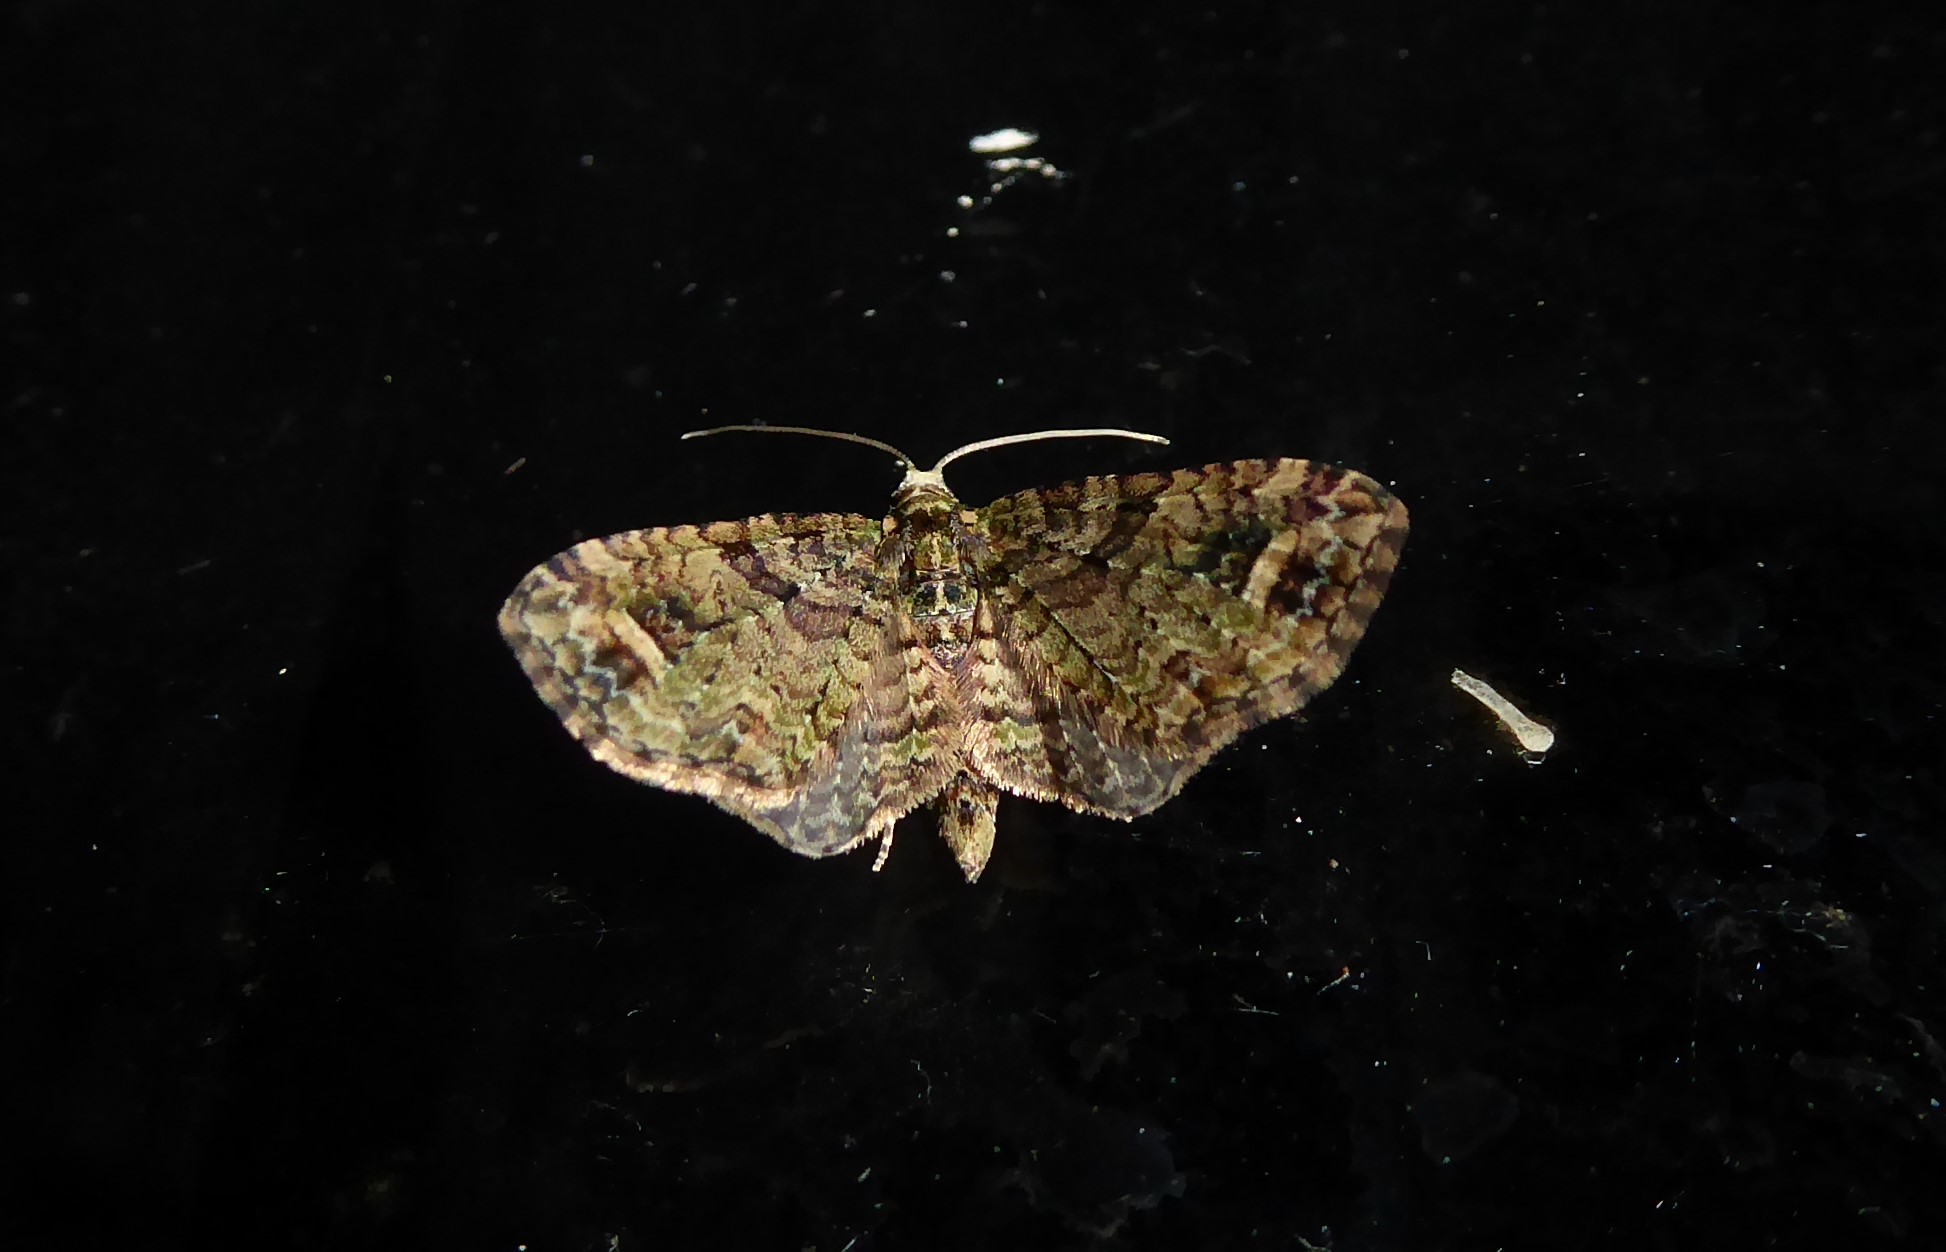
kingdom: Animalia
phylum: Arthropoda
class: Insecta
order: Lepidoptera
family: Geometridae
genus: Idaea
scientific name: Idaea mutanda
